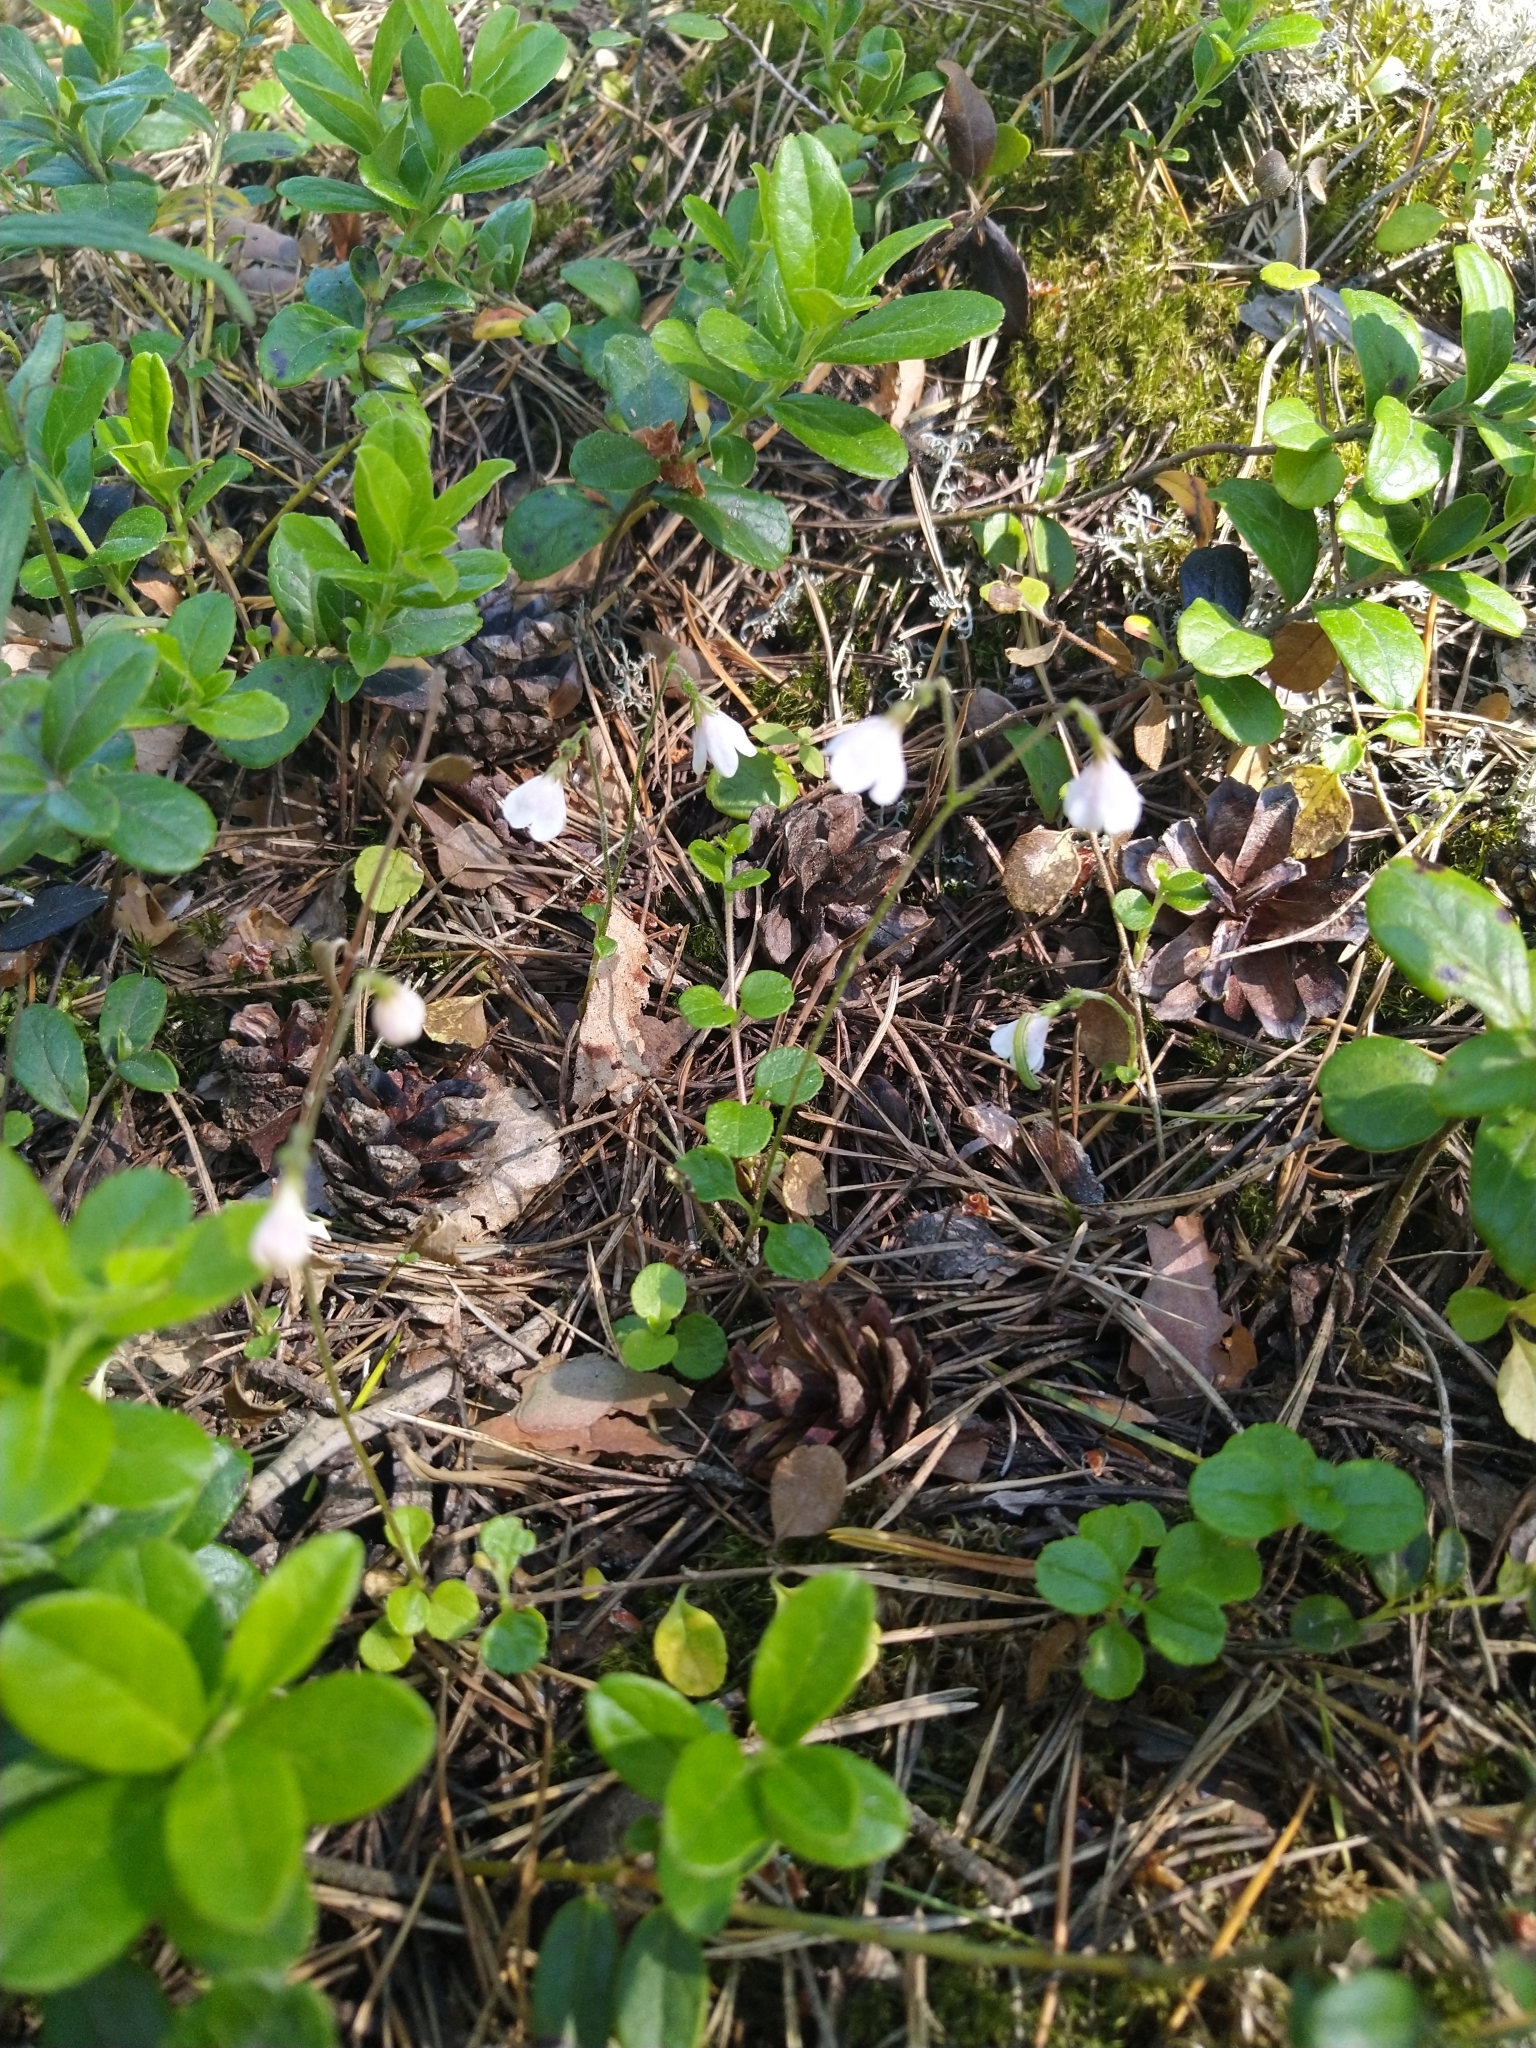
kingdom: Plantae
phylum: Tracheophyta
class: Magnoliopsida
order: Dipsacales
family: Caprifoliaceae
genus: Linnaea
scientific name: Linnaea borealis
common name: Twinflower
